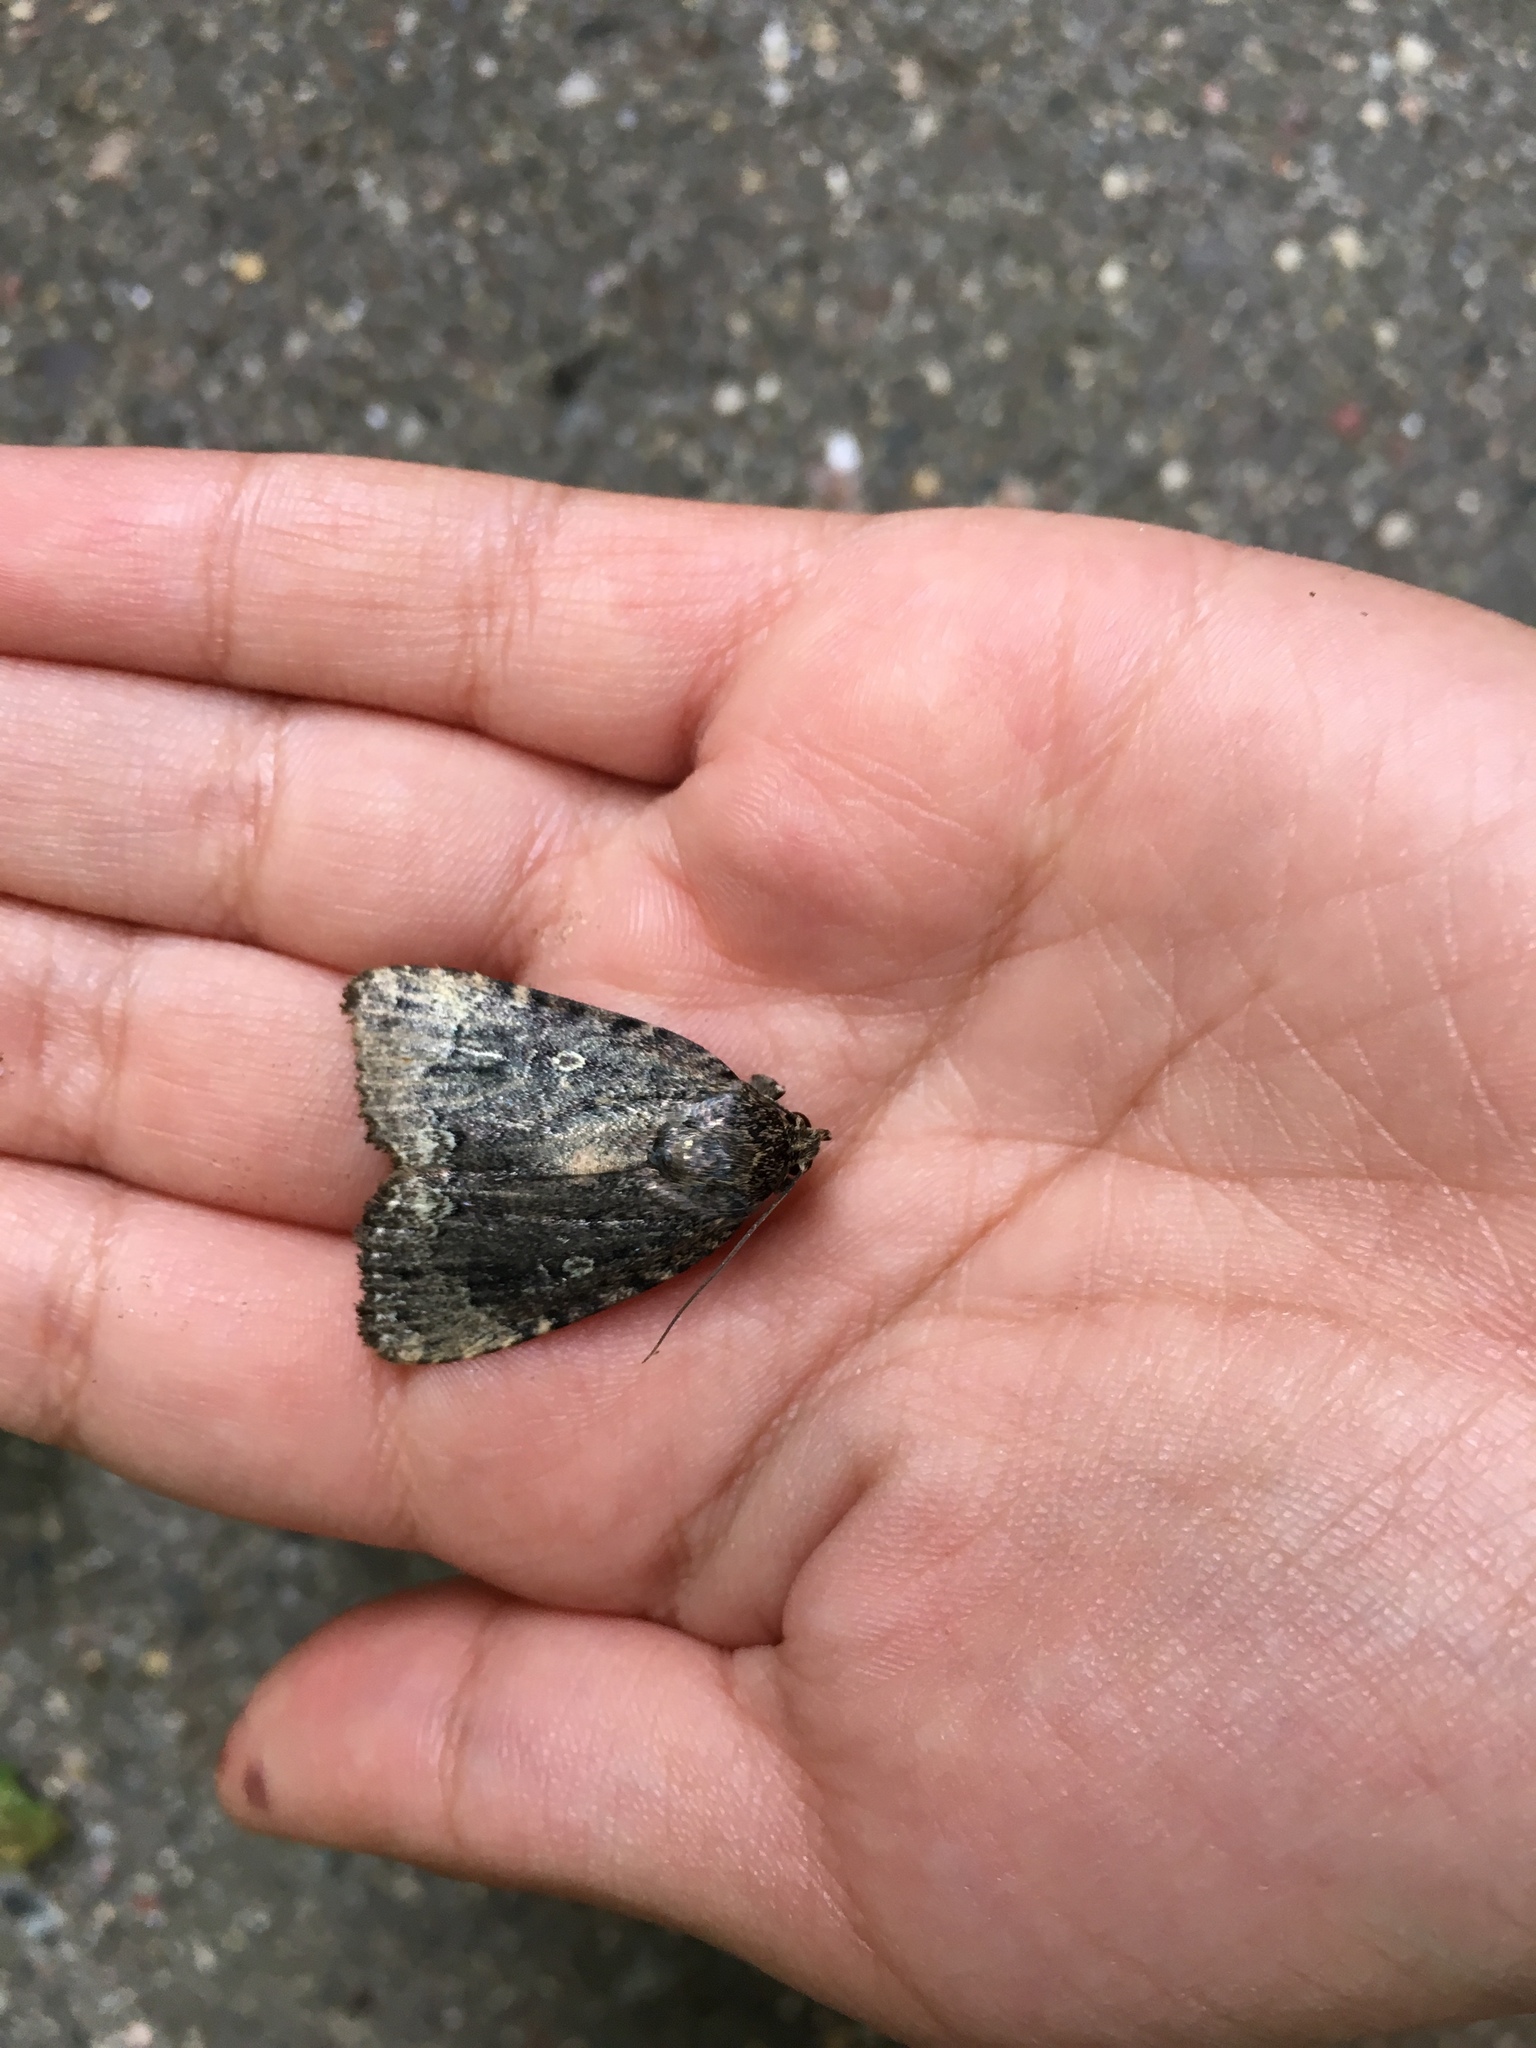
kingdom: Animalia
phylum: Arthropoda
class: Insecta
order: Lepidoptera
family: Noctuidae
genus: Amphipyra
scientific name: Amphipyra pyramidoides
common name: American copper underwing
